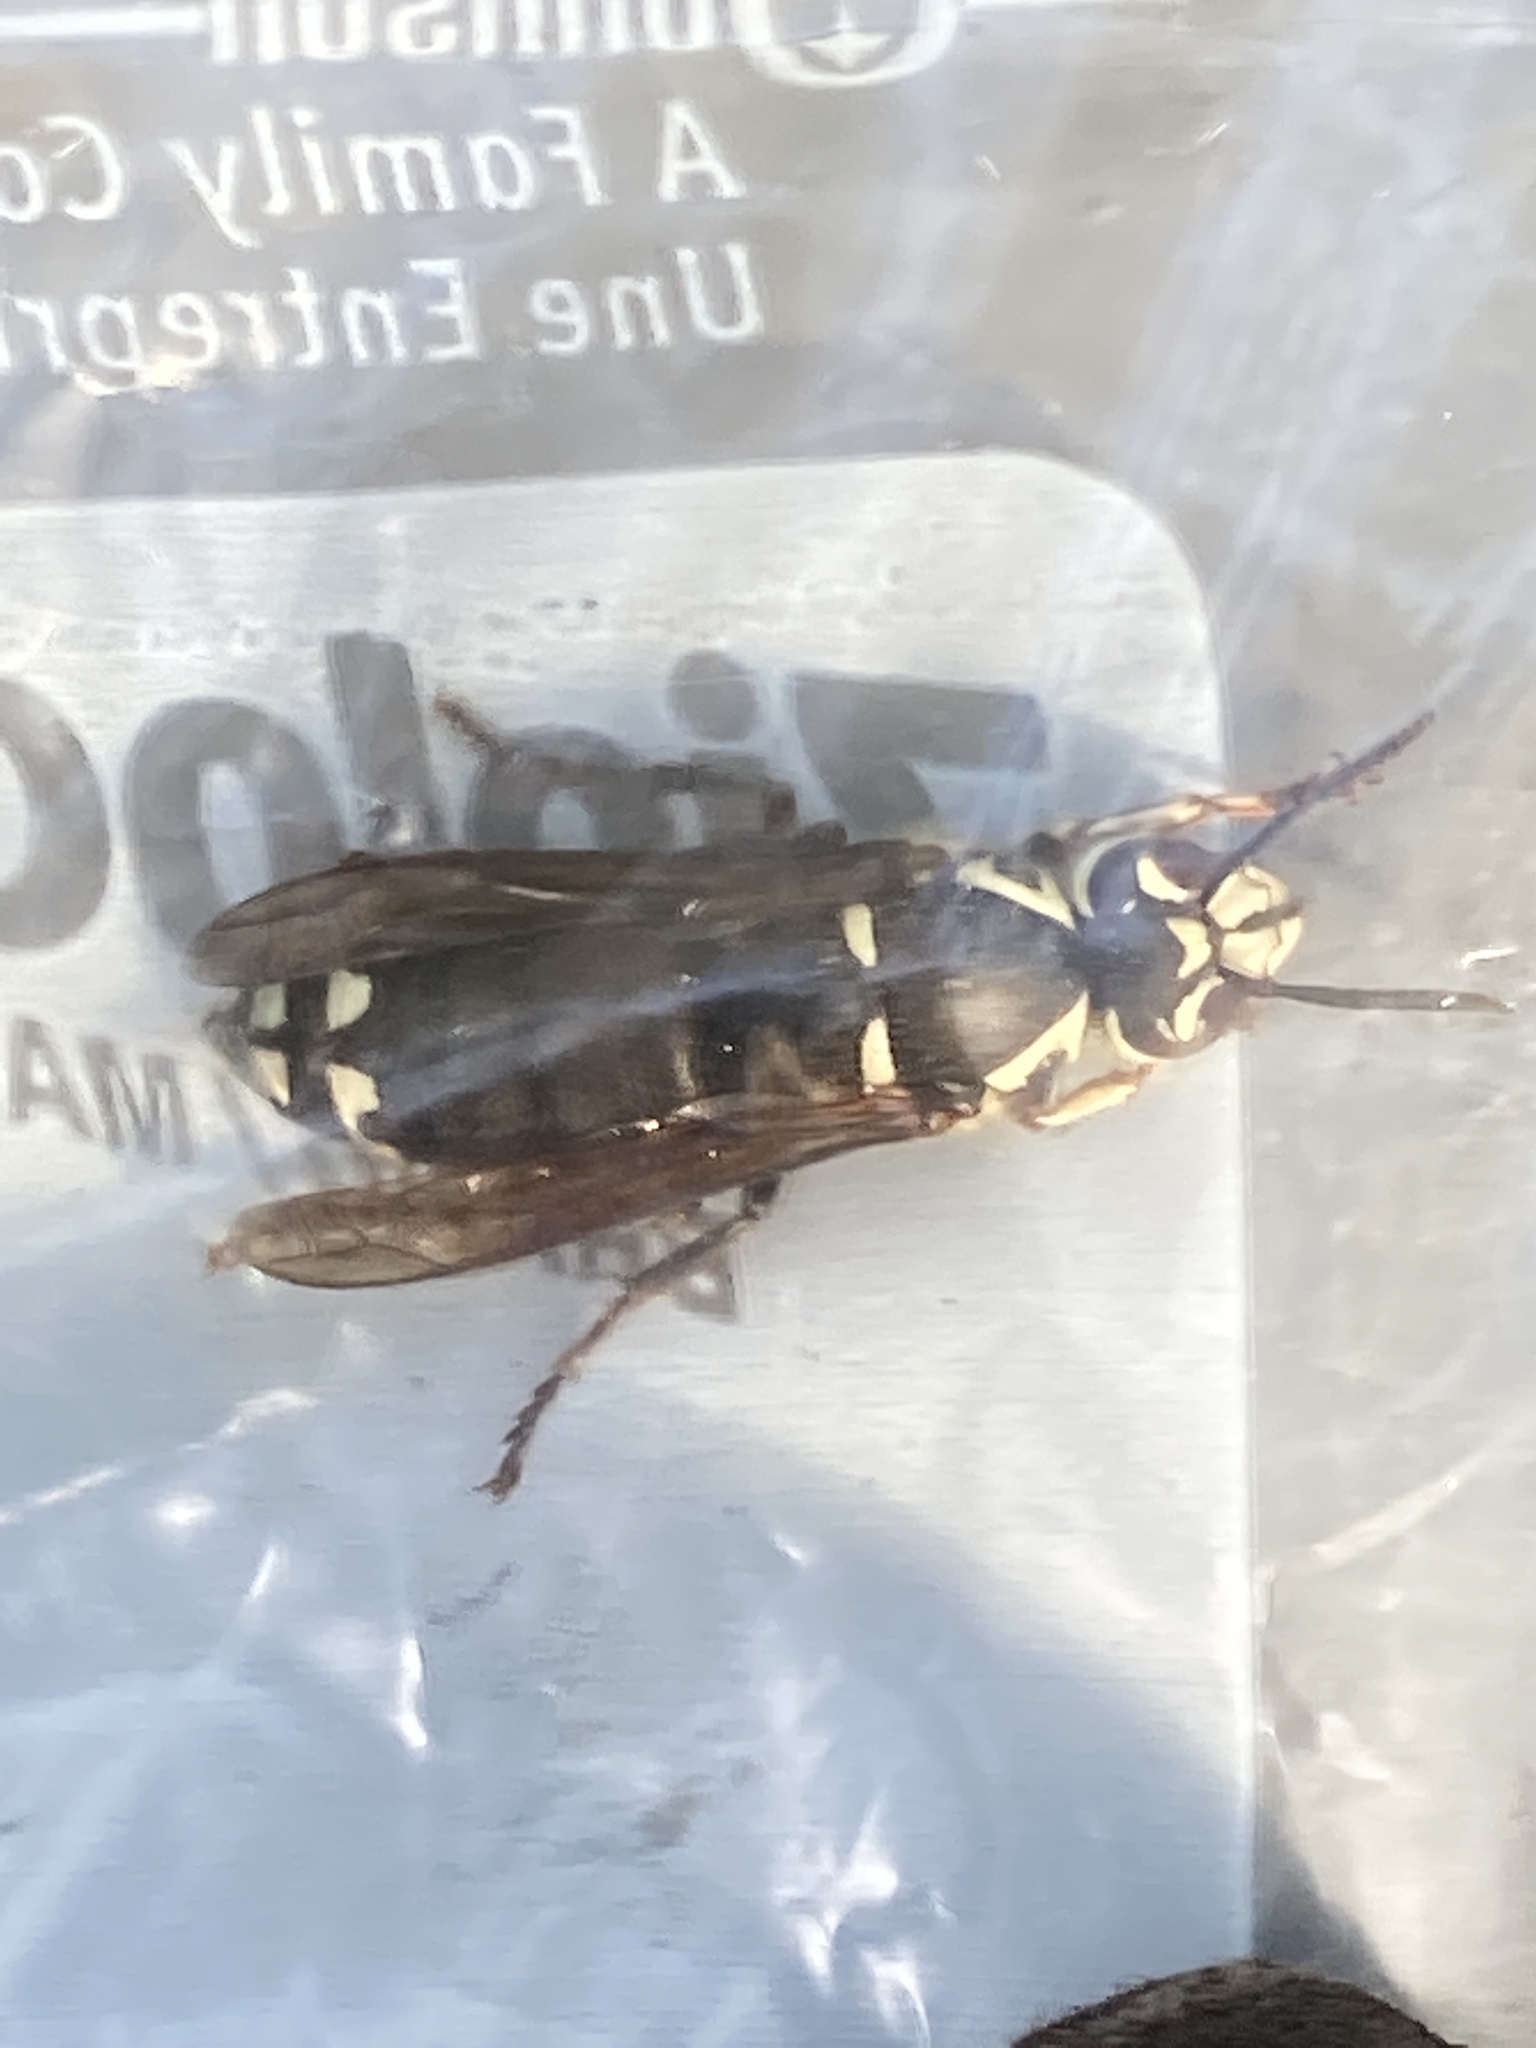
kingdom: Animalia
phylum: Arthropoda
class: Insecta
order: Hymenoptera
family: Vespidae
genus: Dolichovespula
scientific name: Dolichovespula maculata
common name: Bald-faced hornet
